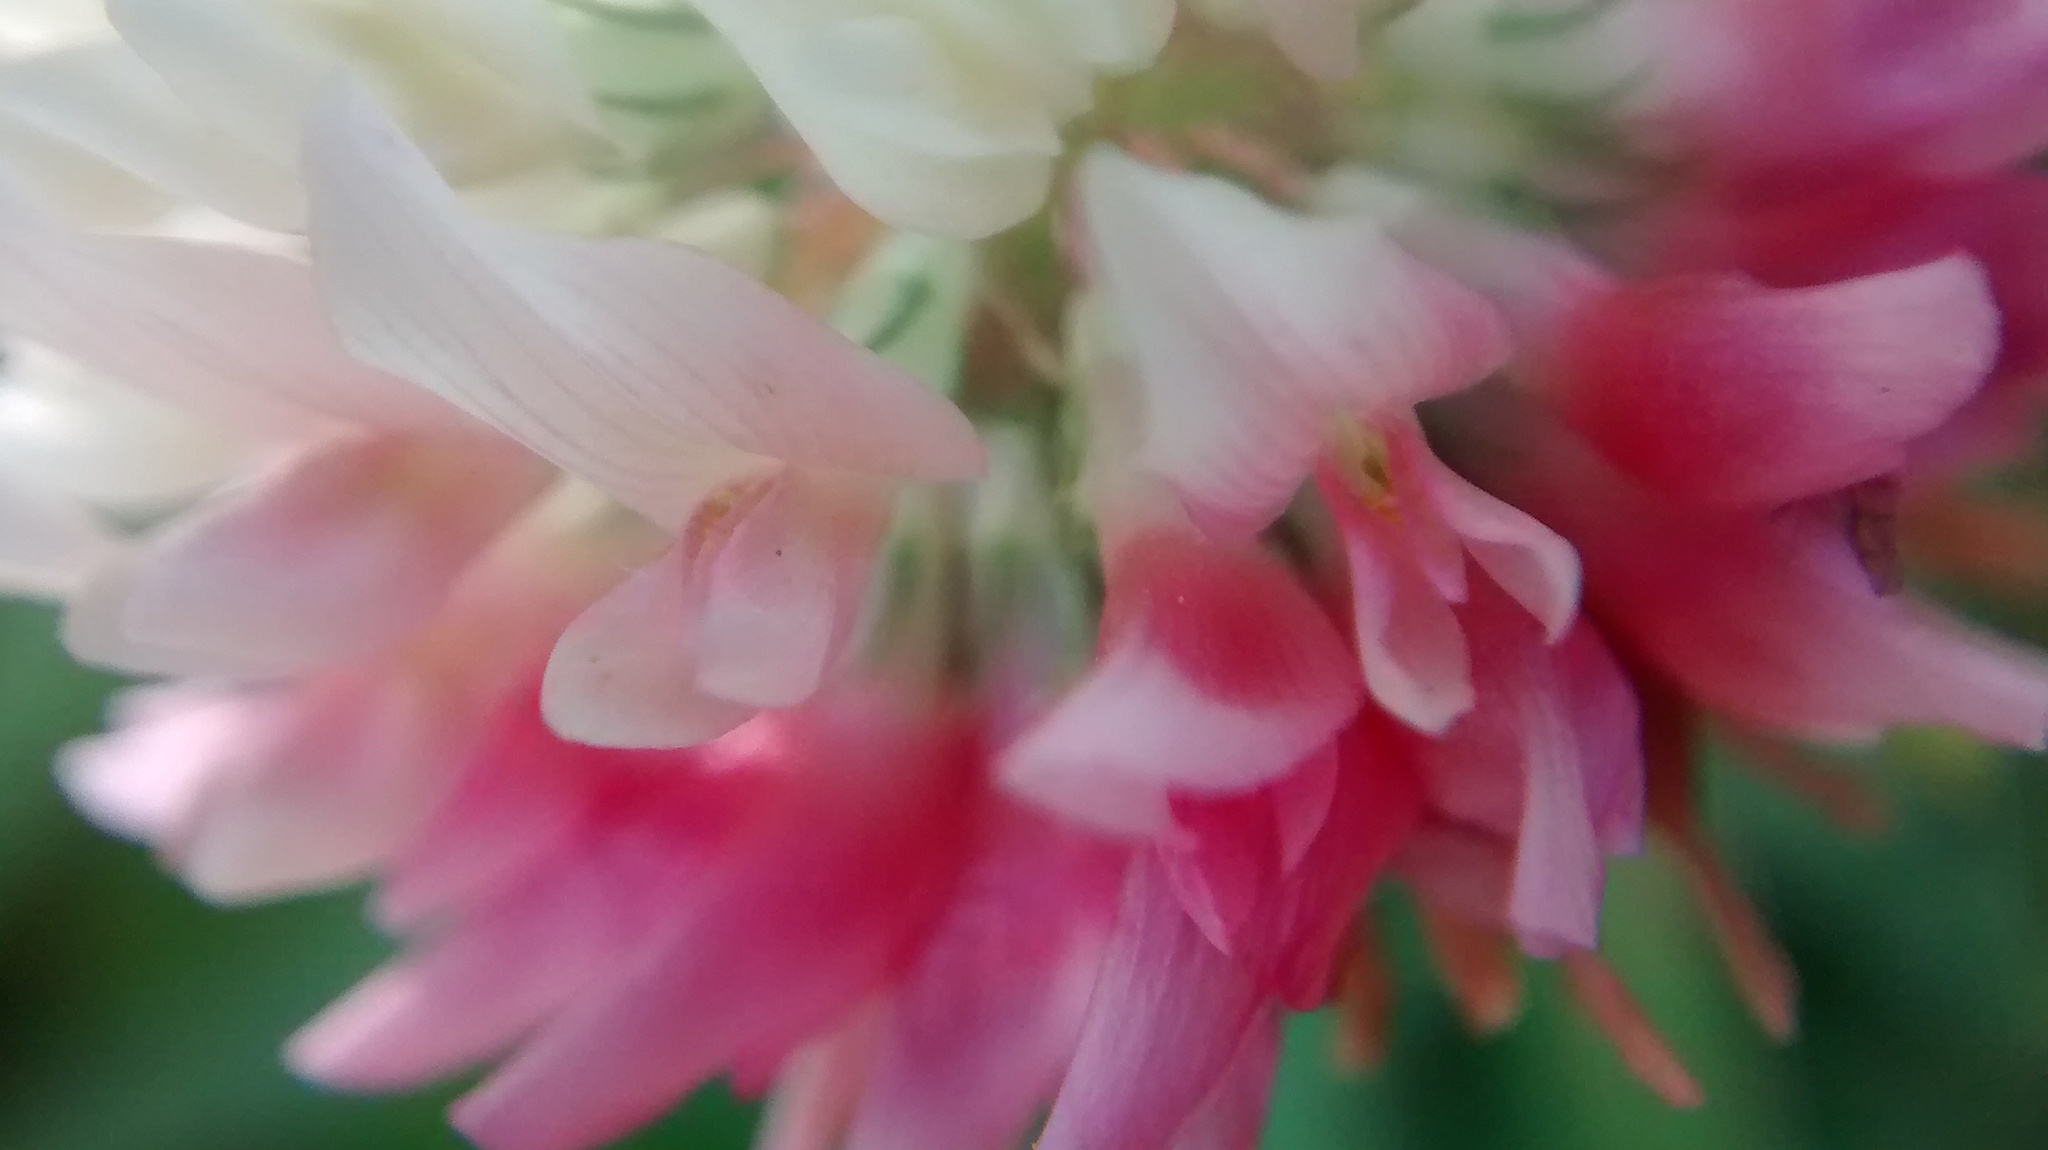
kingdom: Plantae
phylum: Tracheophyta
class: Magnoliopsida
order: Fabales
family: Fabaceae
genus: Trifolium
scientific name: Trifolium hybridum
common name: Alsike clover
